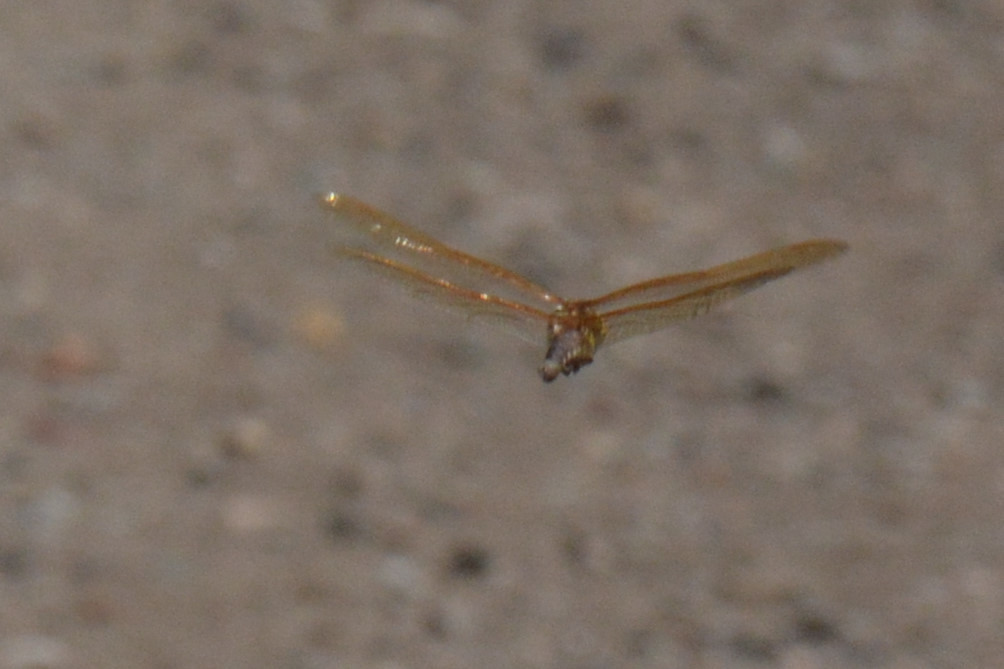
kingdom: Animalia
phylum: Arthropoda
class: Insecta
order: Odonata
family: Aeshnidae
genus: Aeshna
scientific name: Aeshna grandis
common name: Brown hawker
